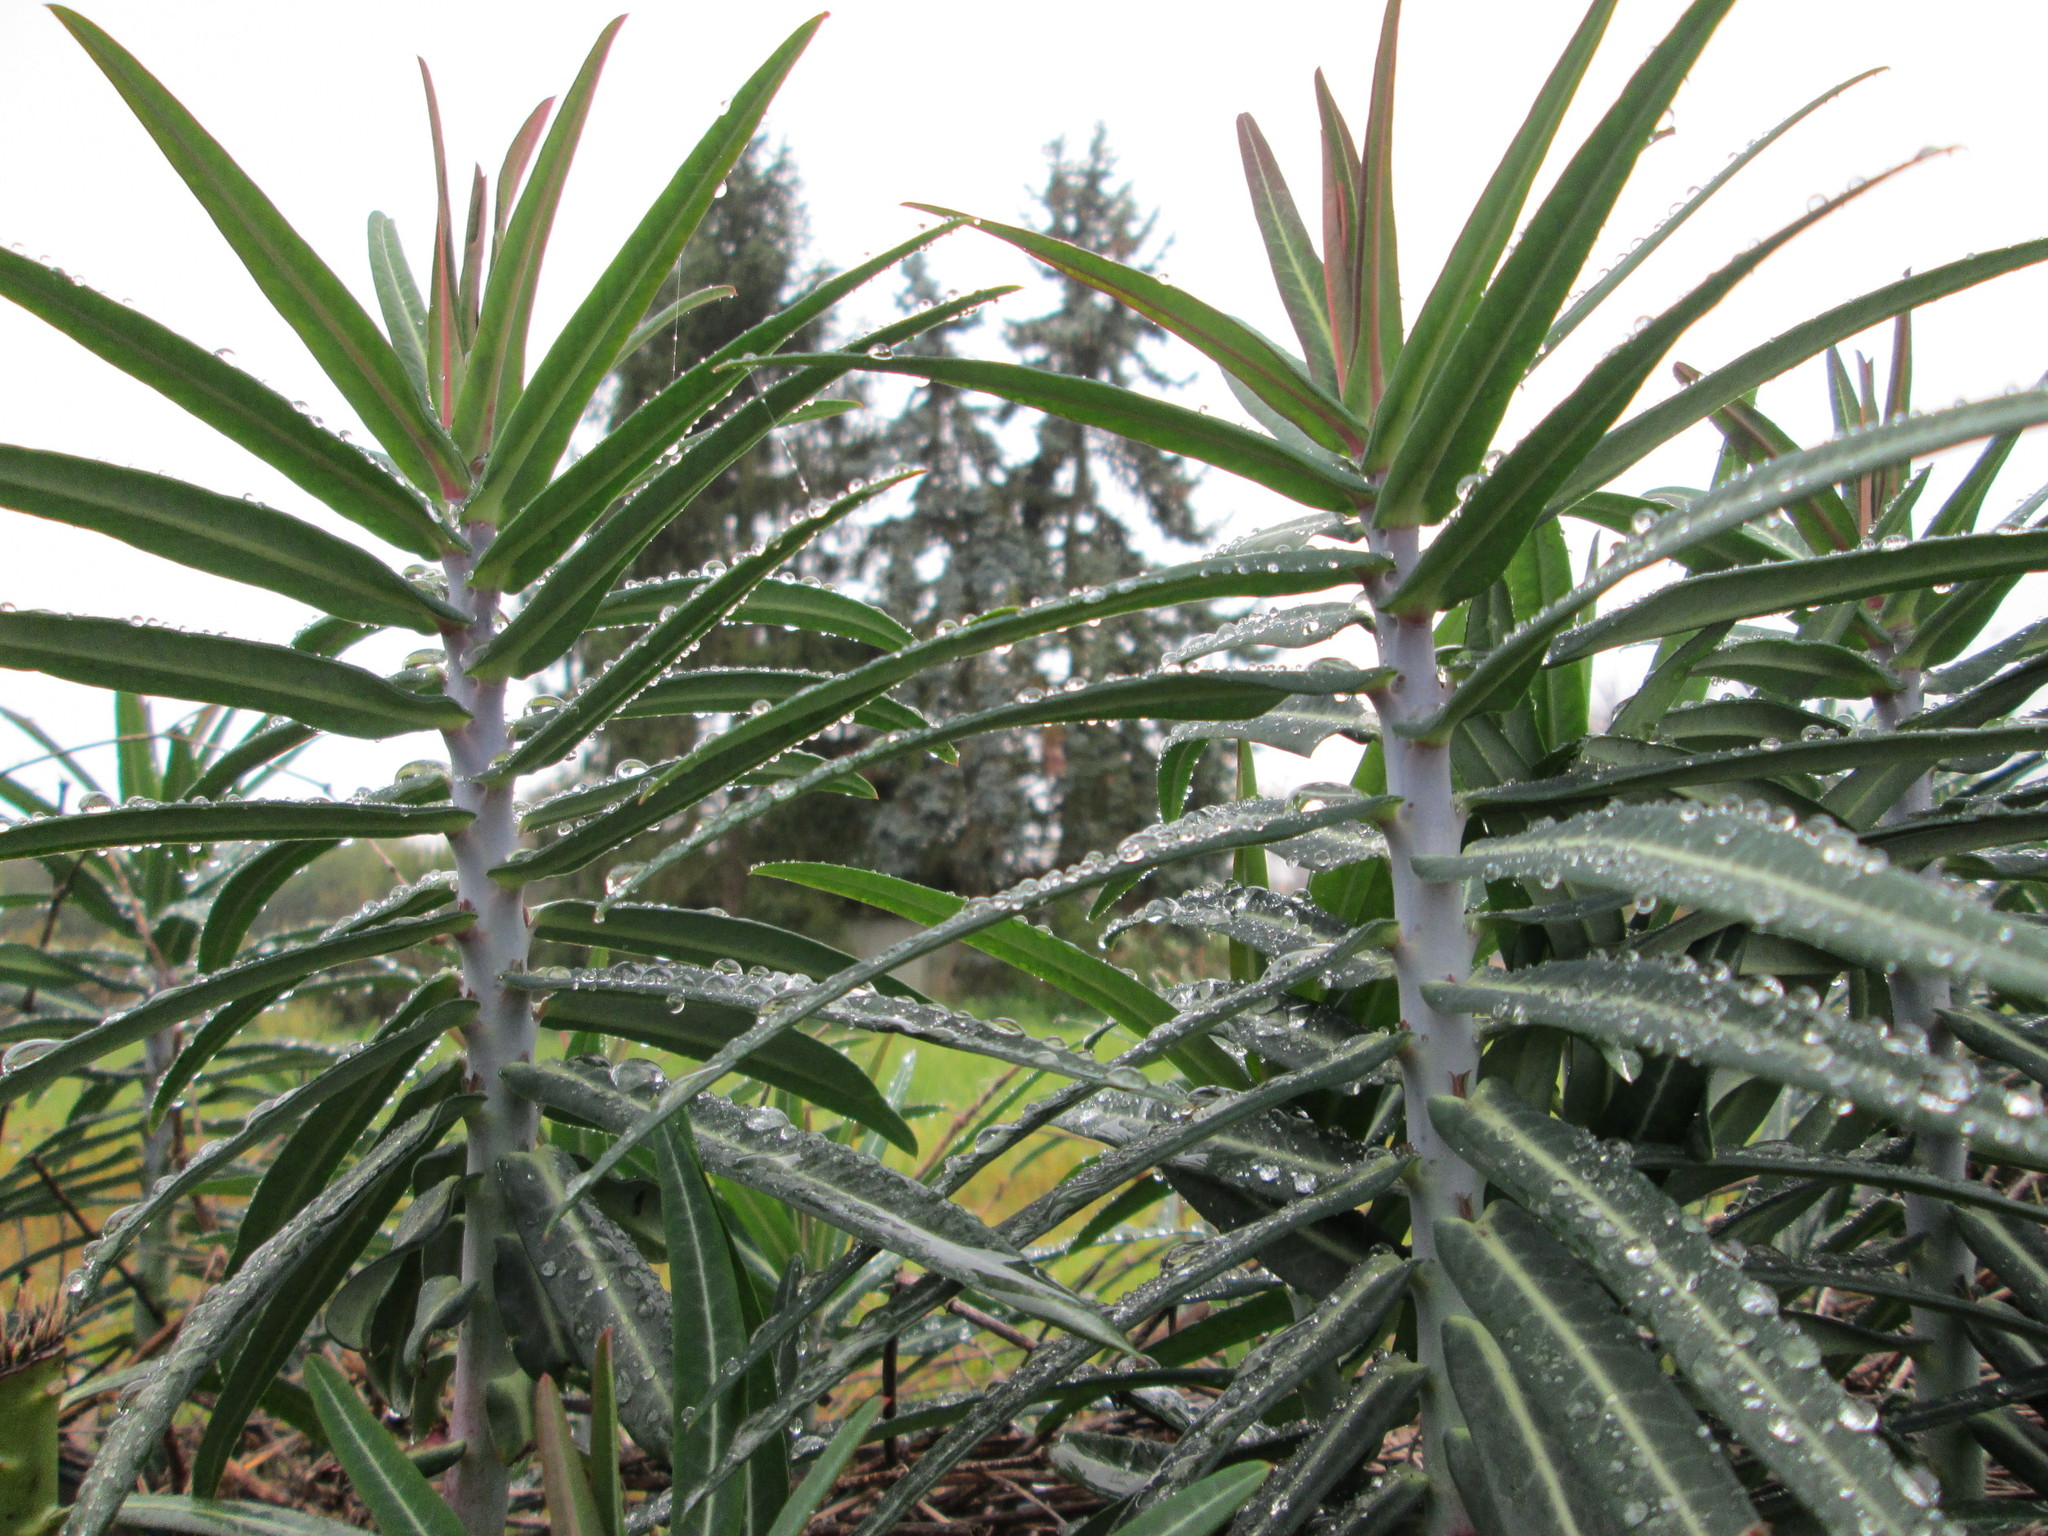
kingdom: Plantae
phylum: Tracheophyta
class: Magnoliopsida
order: Malpighiales
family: Euphorbiaceae
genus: Euphorbia
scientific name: Euphorbia lathyris
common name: Caper spurge
